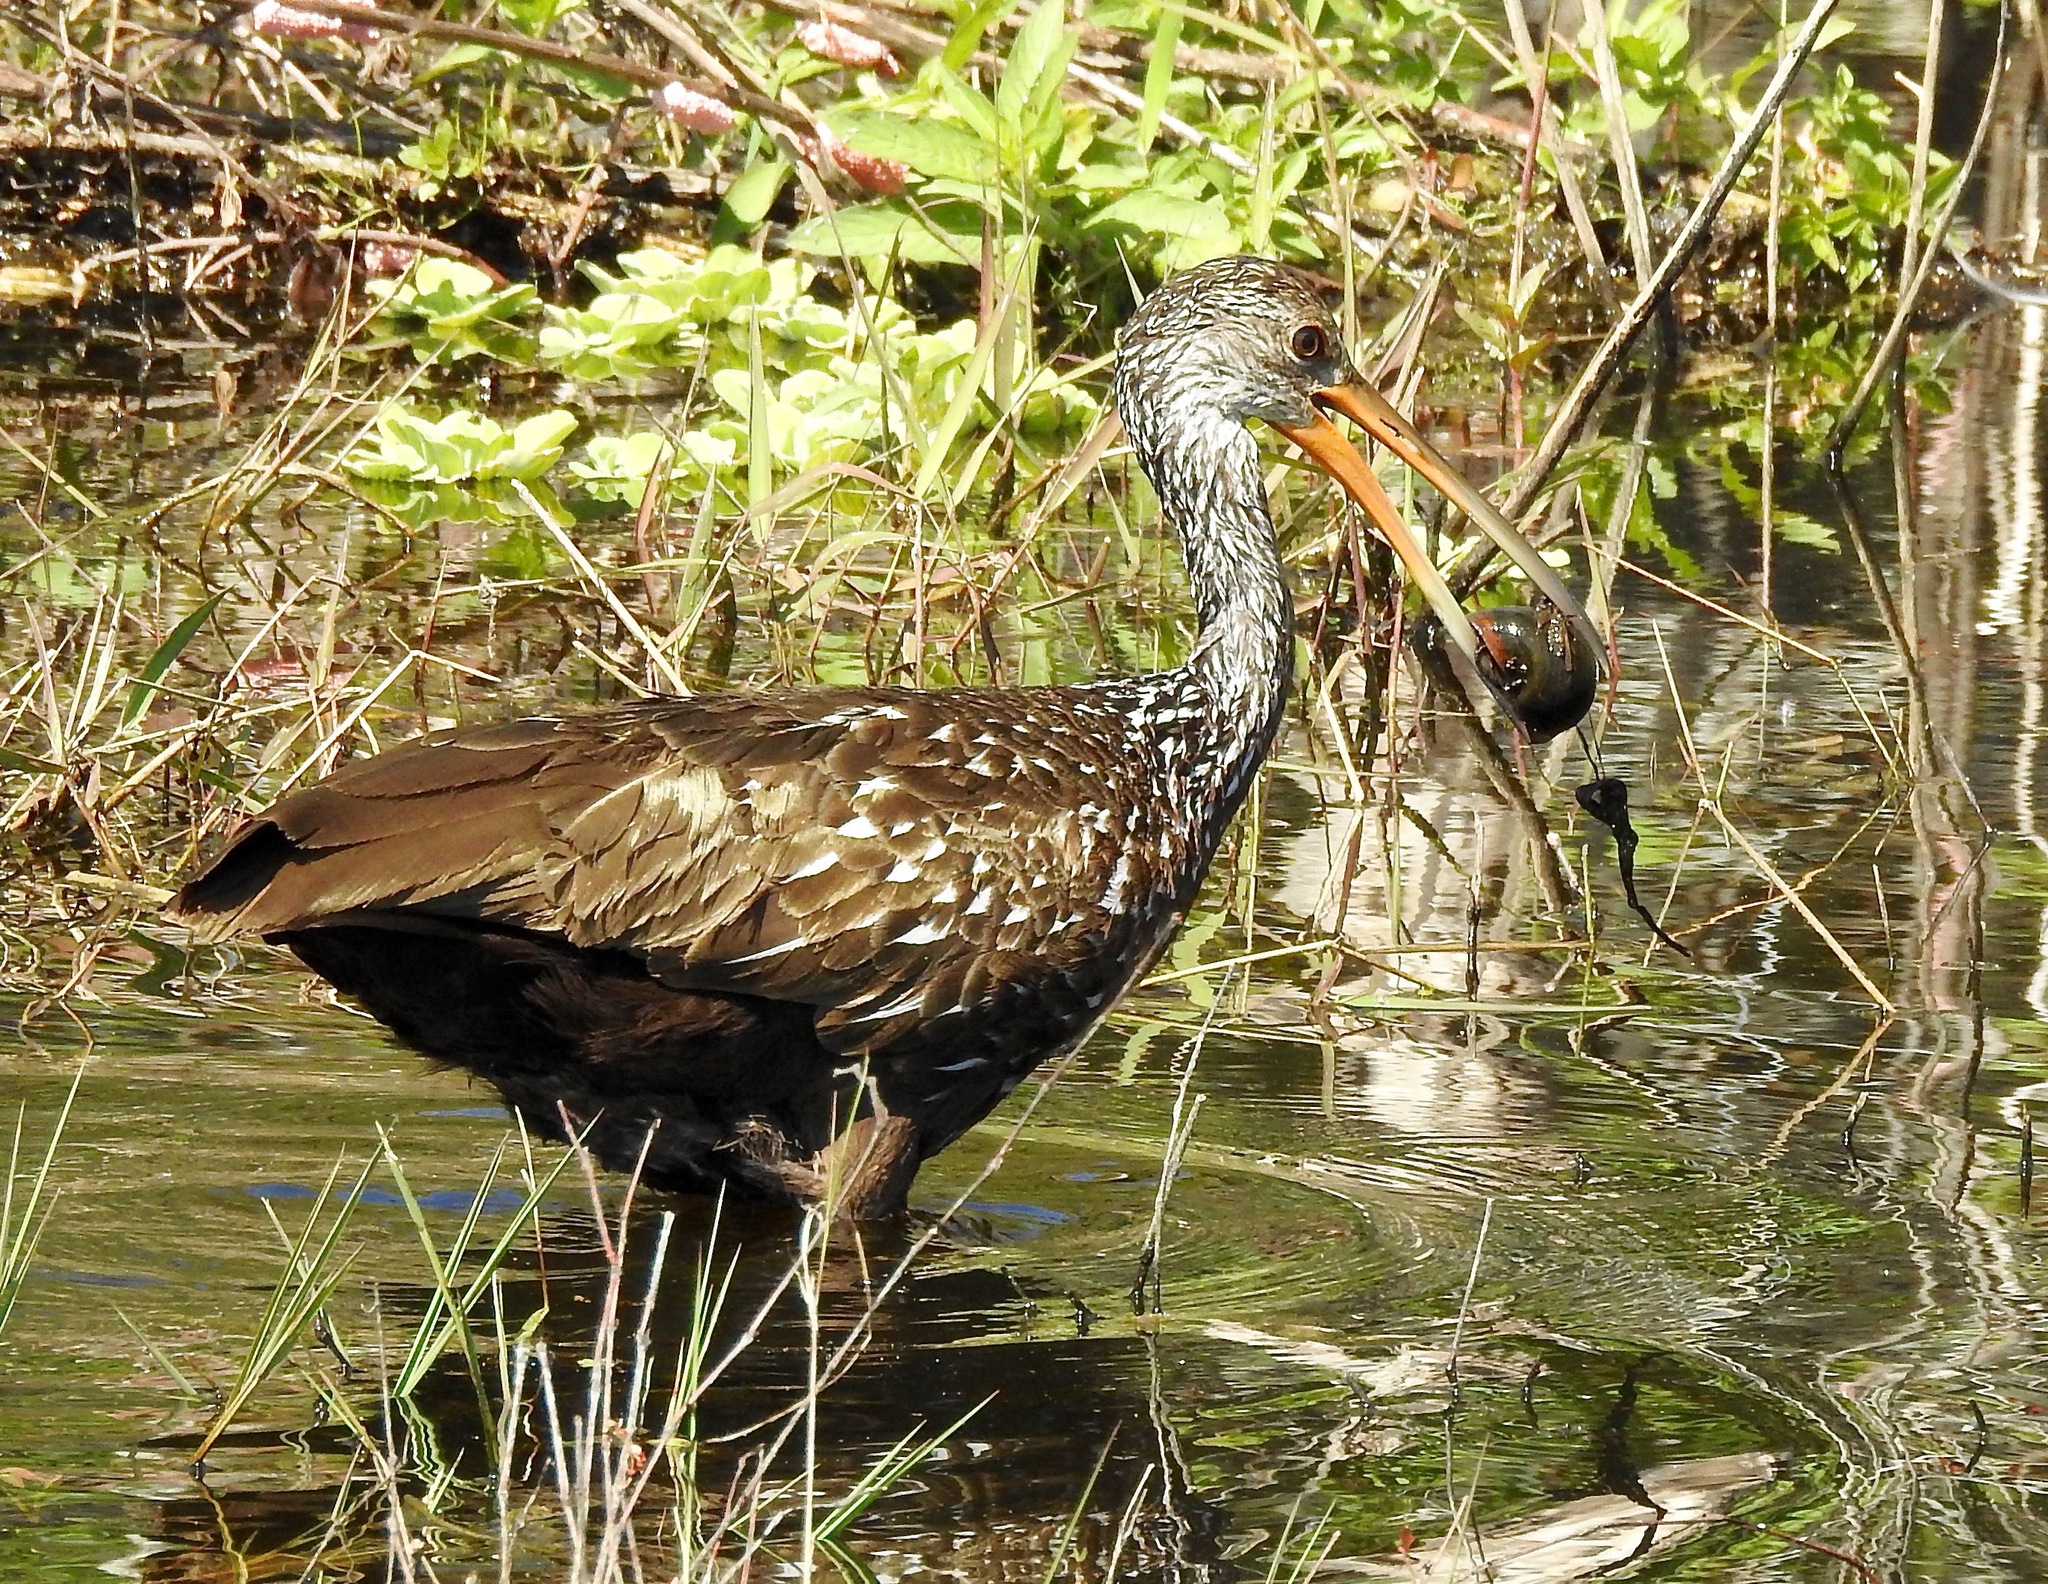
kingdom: Animalia
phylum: Chordata
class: Aves
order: Gruiformes
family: Aramidae
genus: Aramus
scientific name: Aramus guarauna
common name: Limpkin
